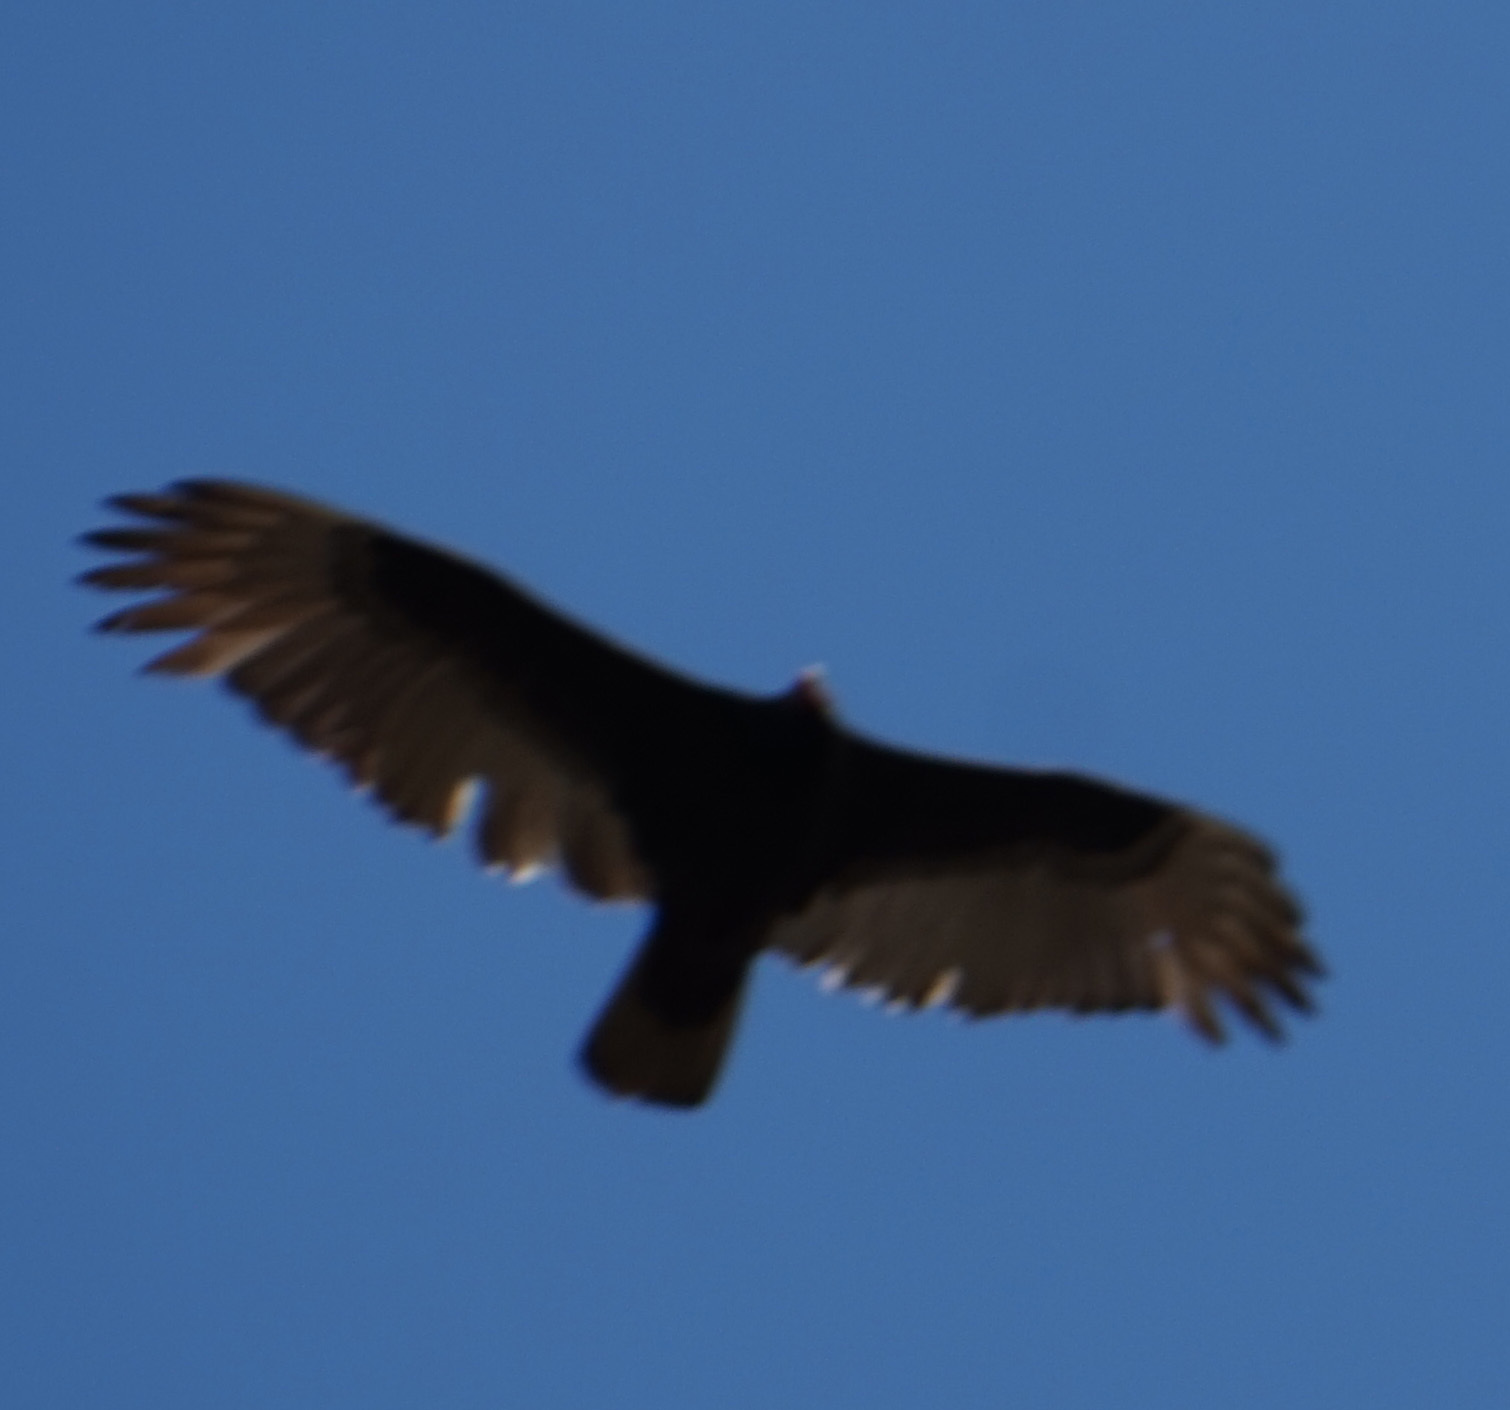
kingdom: Animalia
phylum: Chordata
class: Aves
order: Accipitriformes
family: Cathartidae
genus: Cathartes
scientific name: Cathartes aura
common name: Turkey vulture
